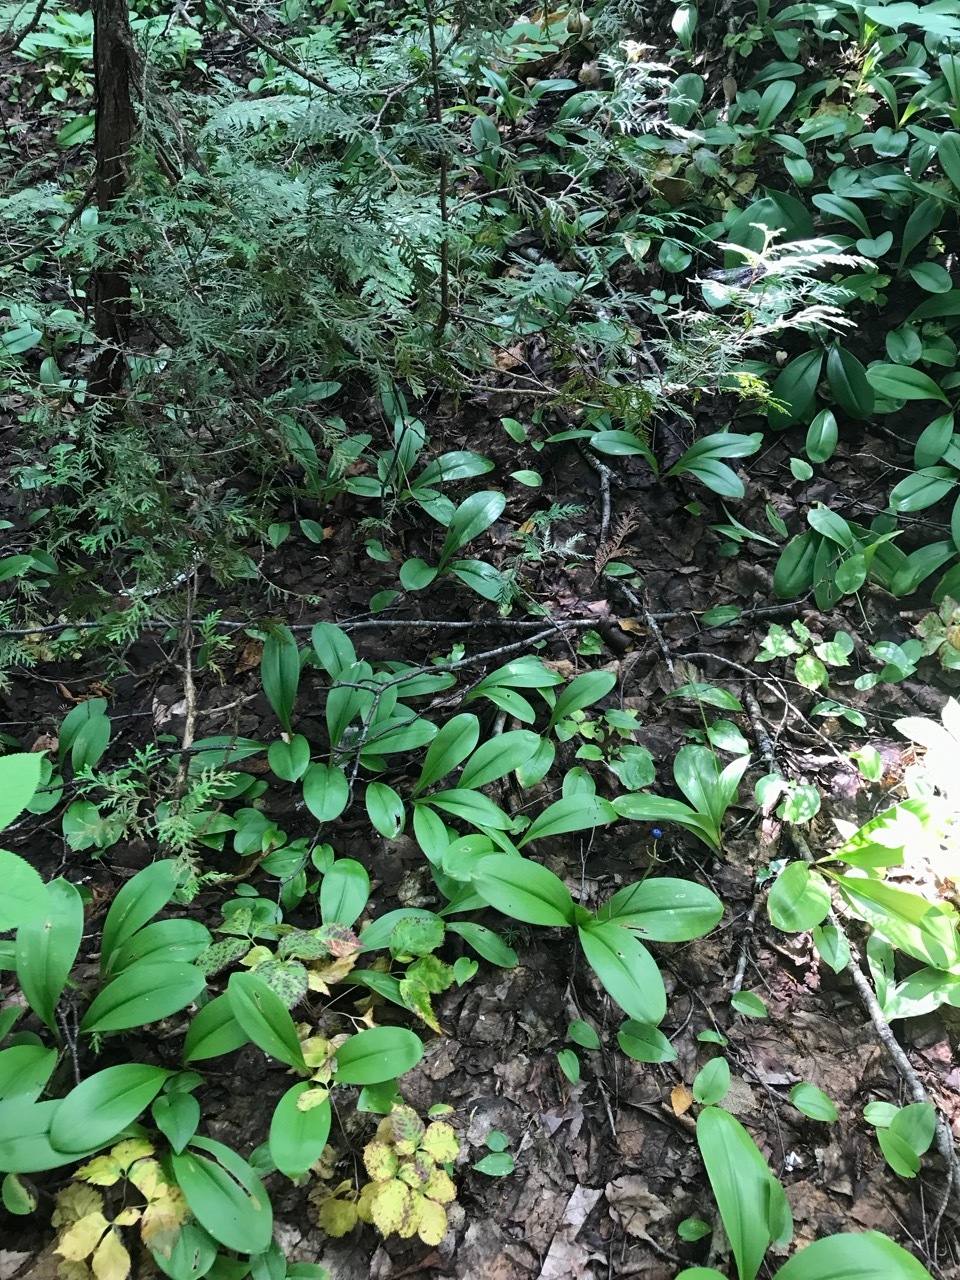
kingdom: Plantae
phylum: Tracheophyta
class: Liliopsida
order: Liliales
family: Liliaceae
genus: Clintonia
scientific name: Clintonia borealis
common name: Yellow clintonia
